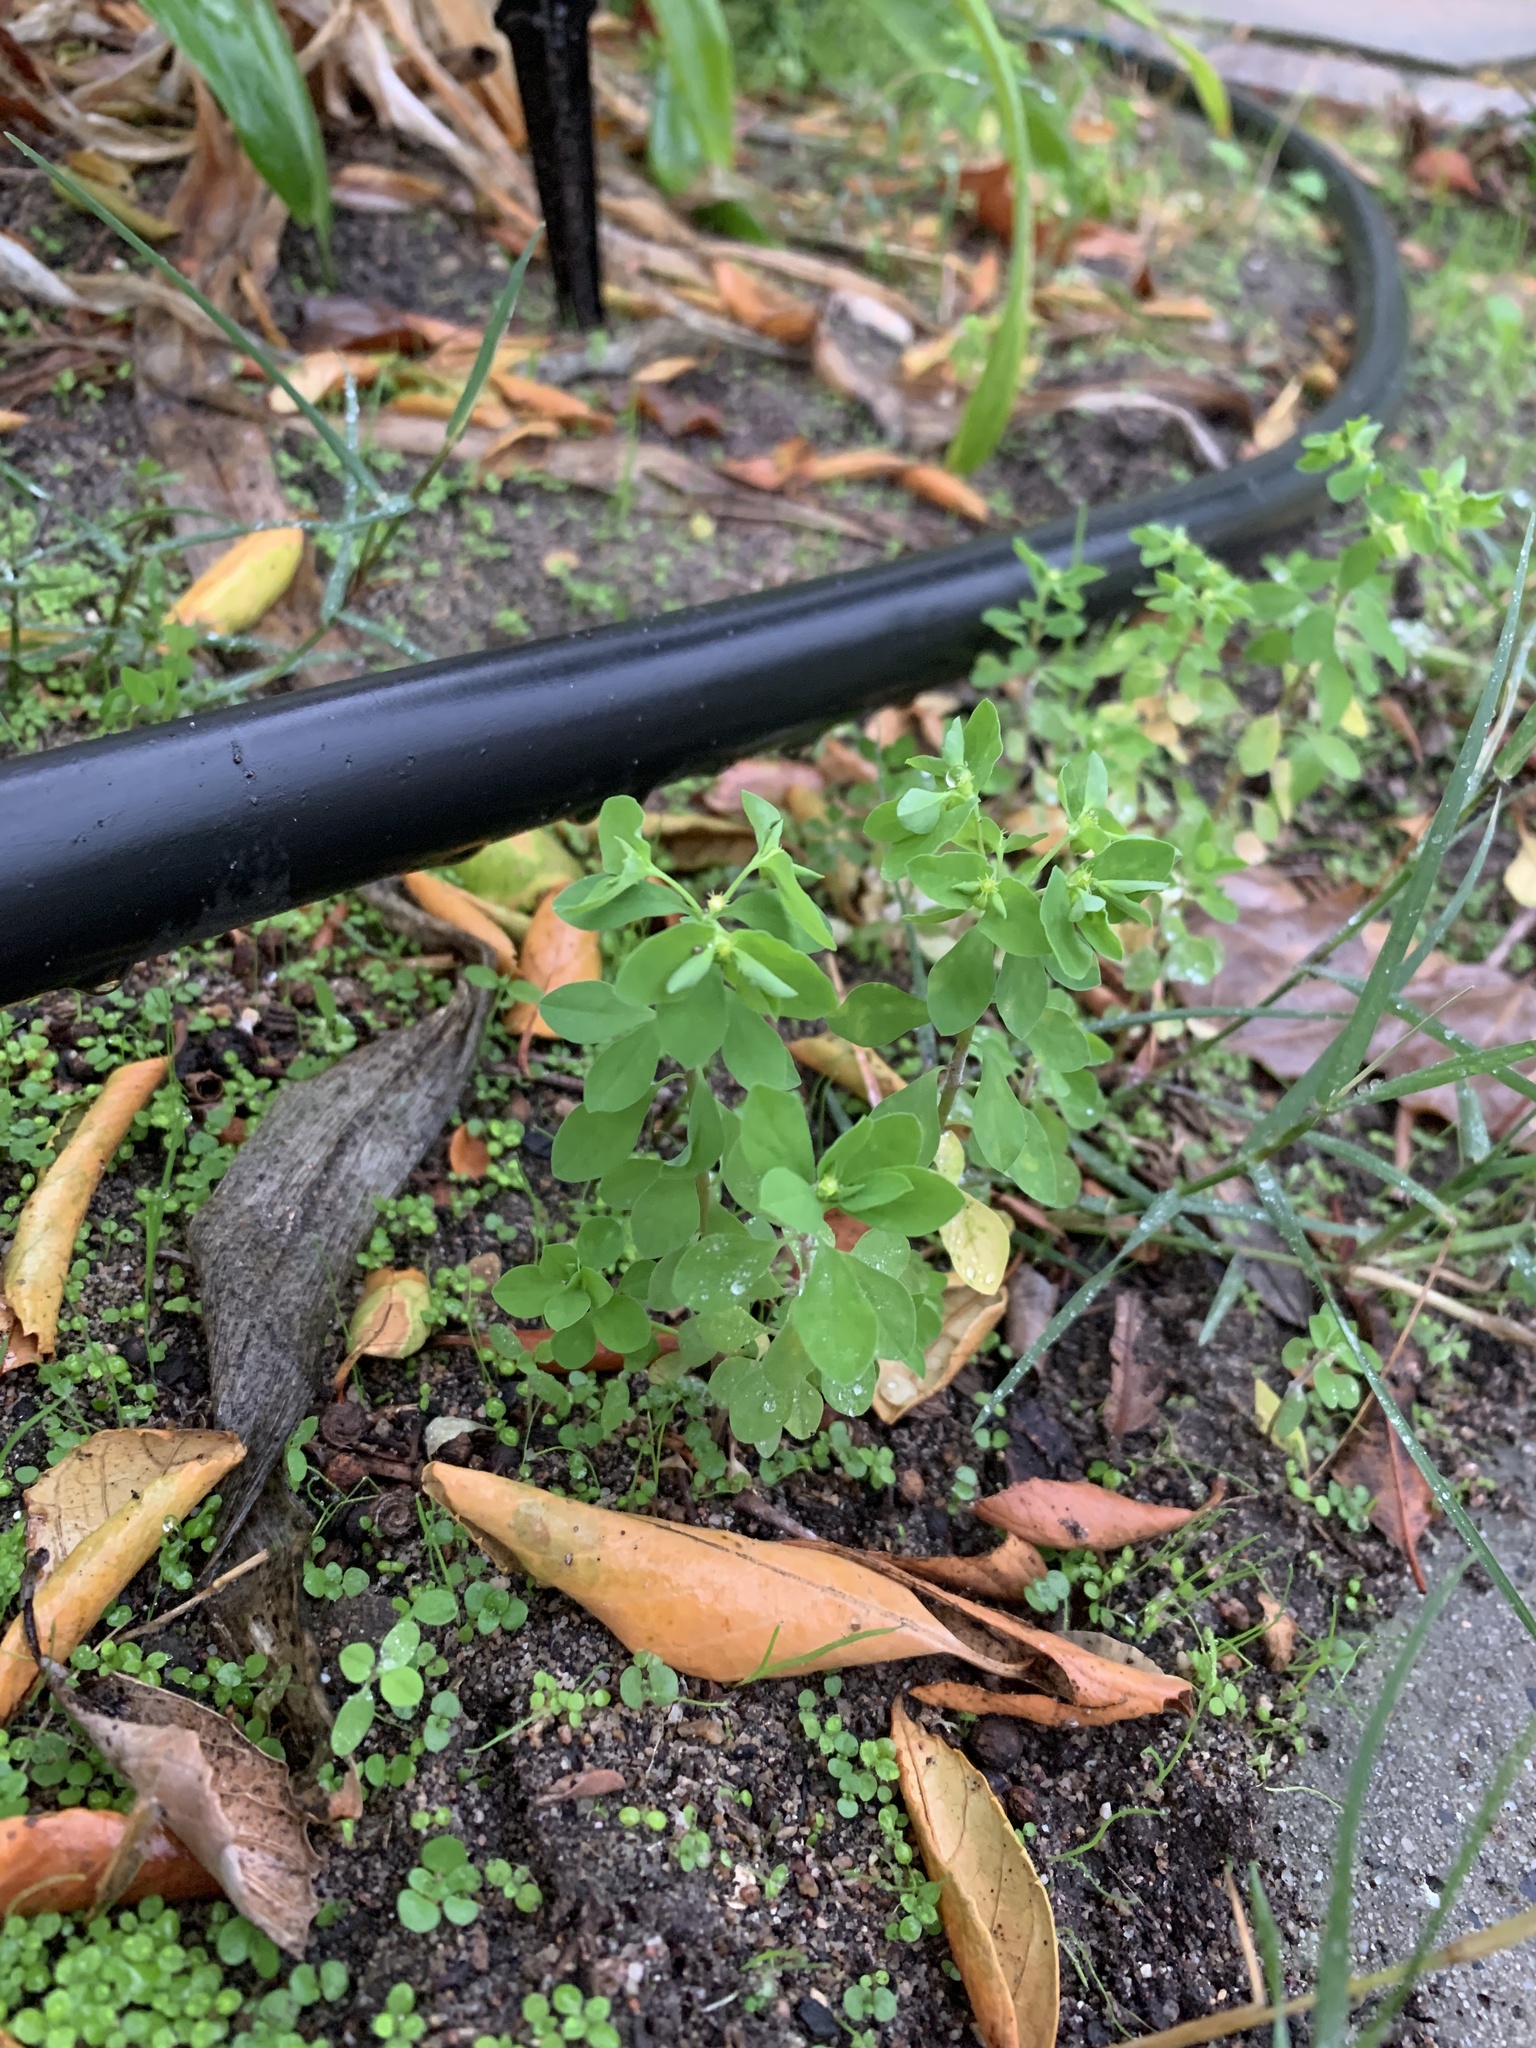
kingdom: Plantae
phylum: Tracheophyta
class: Magnoliopsida
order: Malpighiales
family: Euphorbiaceae
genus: Euphorbia
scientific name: Euphorbia peplus
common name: Petty spurge
